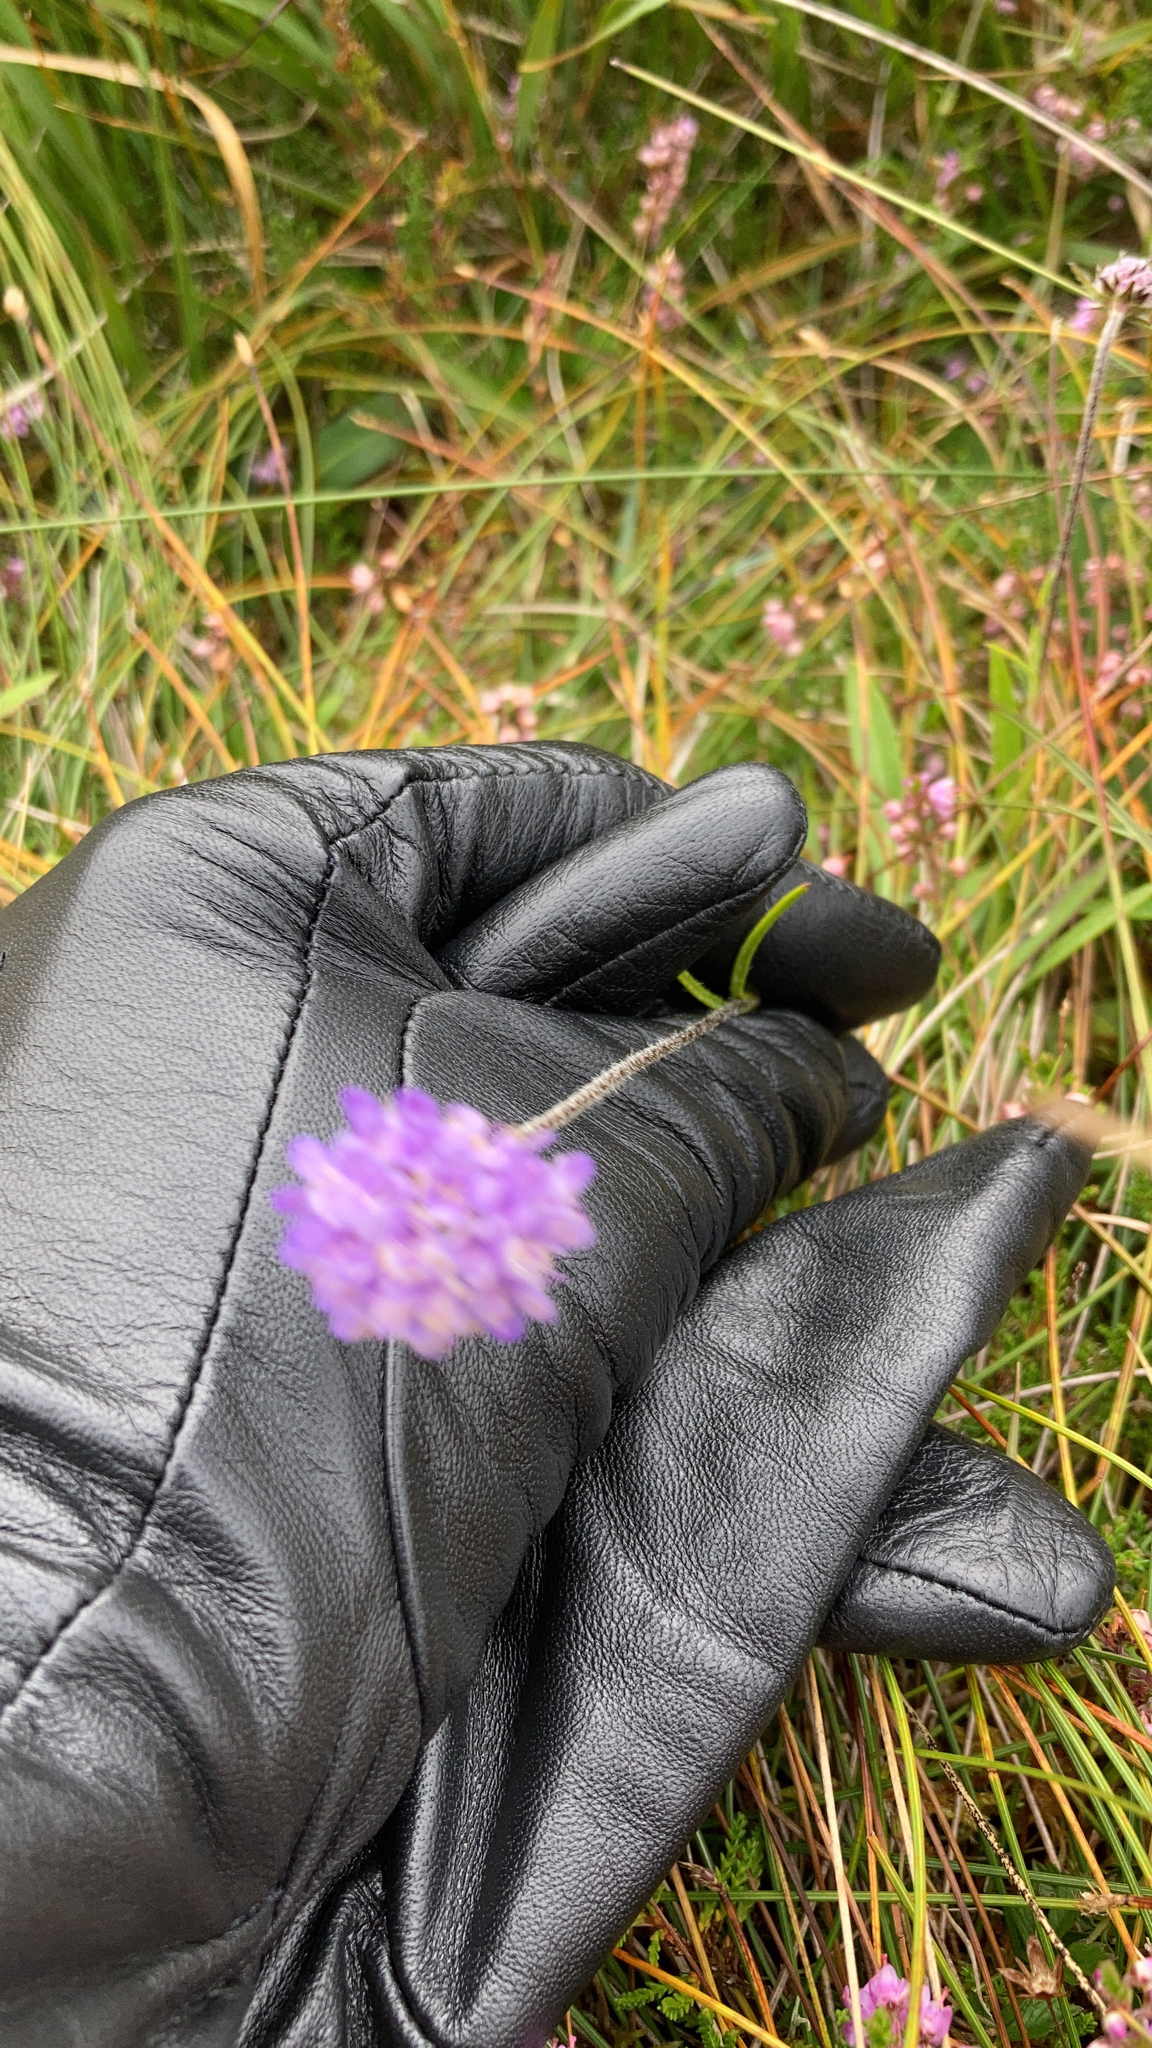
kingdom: Plantae
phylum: Tracheophyta
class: Magnoliopsida
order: Dipsacales
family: Caprifoliaceae
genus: Succisa
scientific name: Succisa pratensis
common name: Devil's-bit
